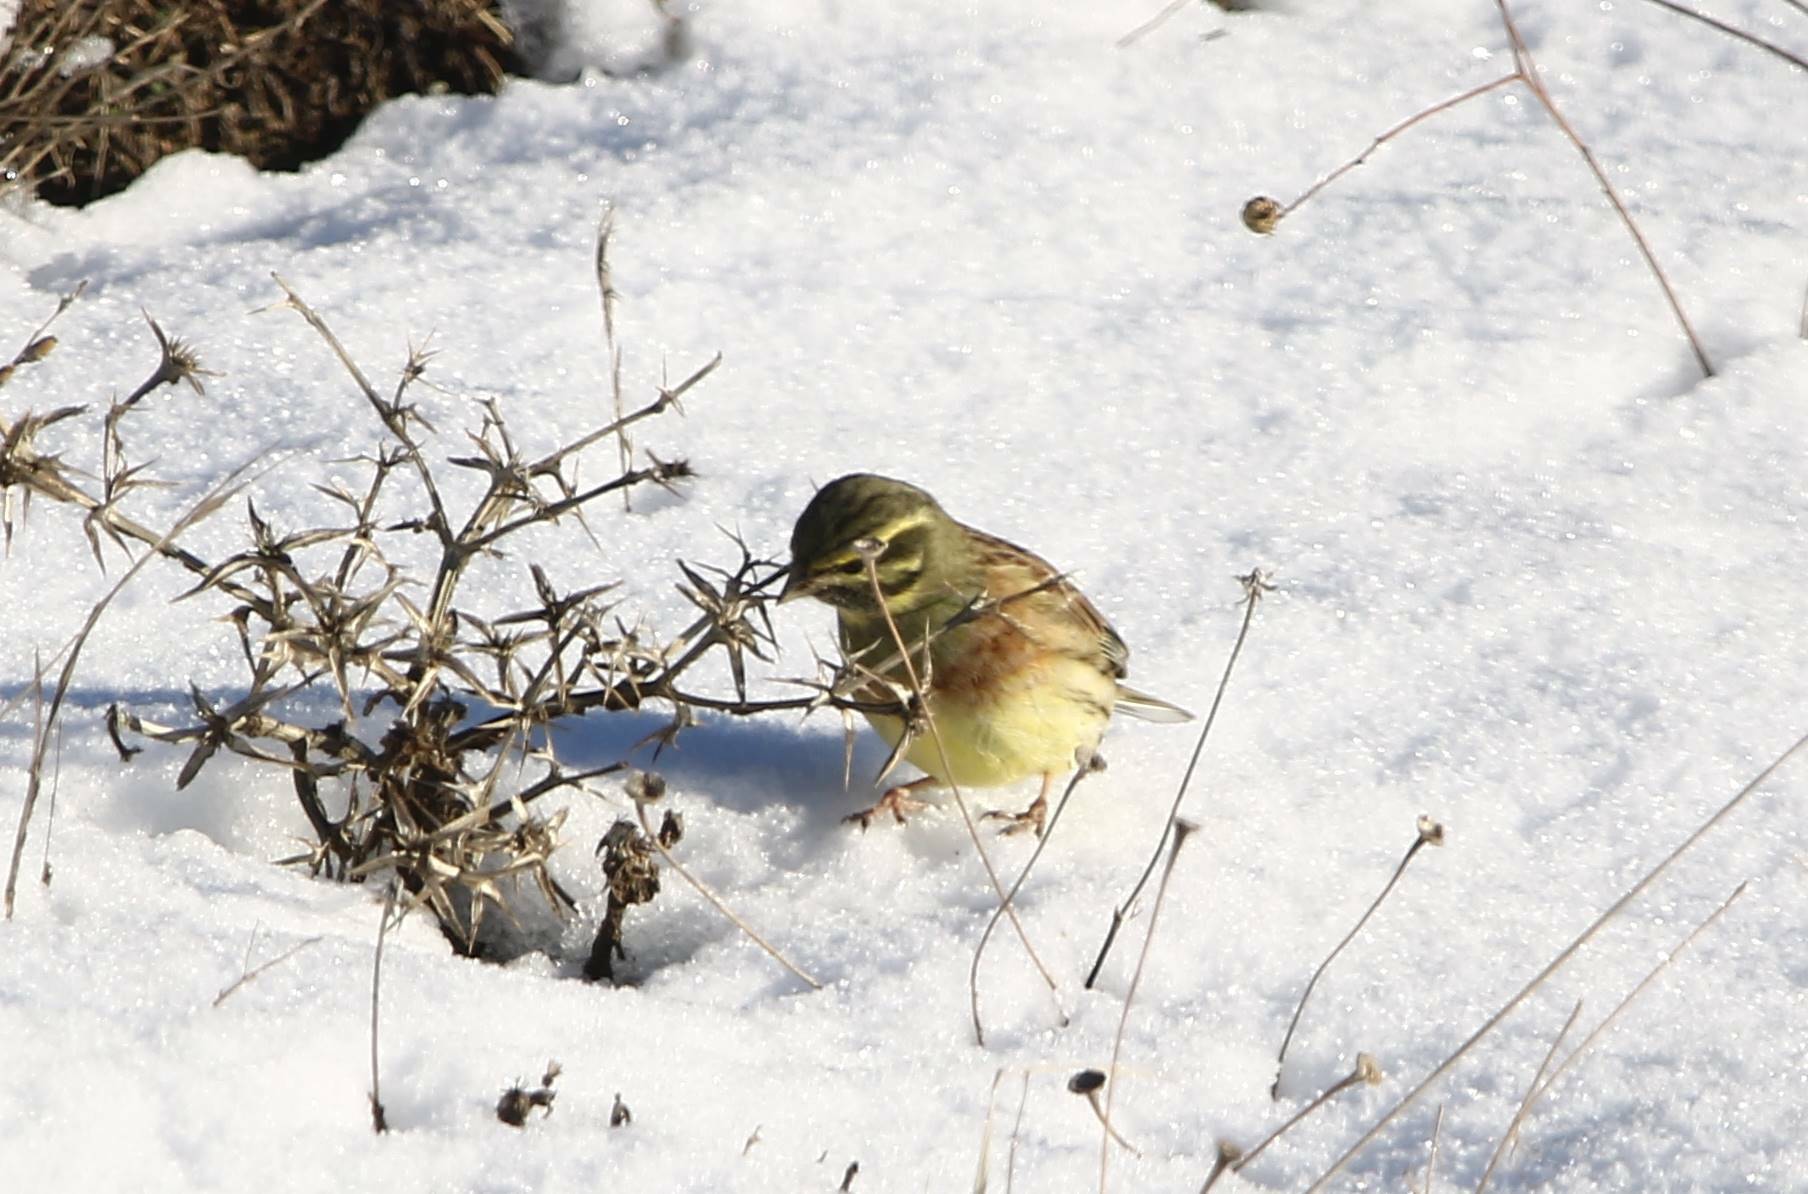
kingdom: Animalia
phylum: Chordata
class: Aves
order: Passeriformes
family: Emberizidae
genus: Emberiza
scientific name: Emberiza cirlus
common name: Cirl bunting
